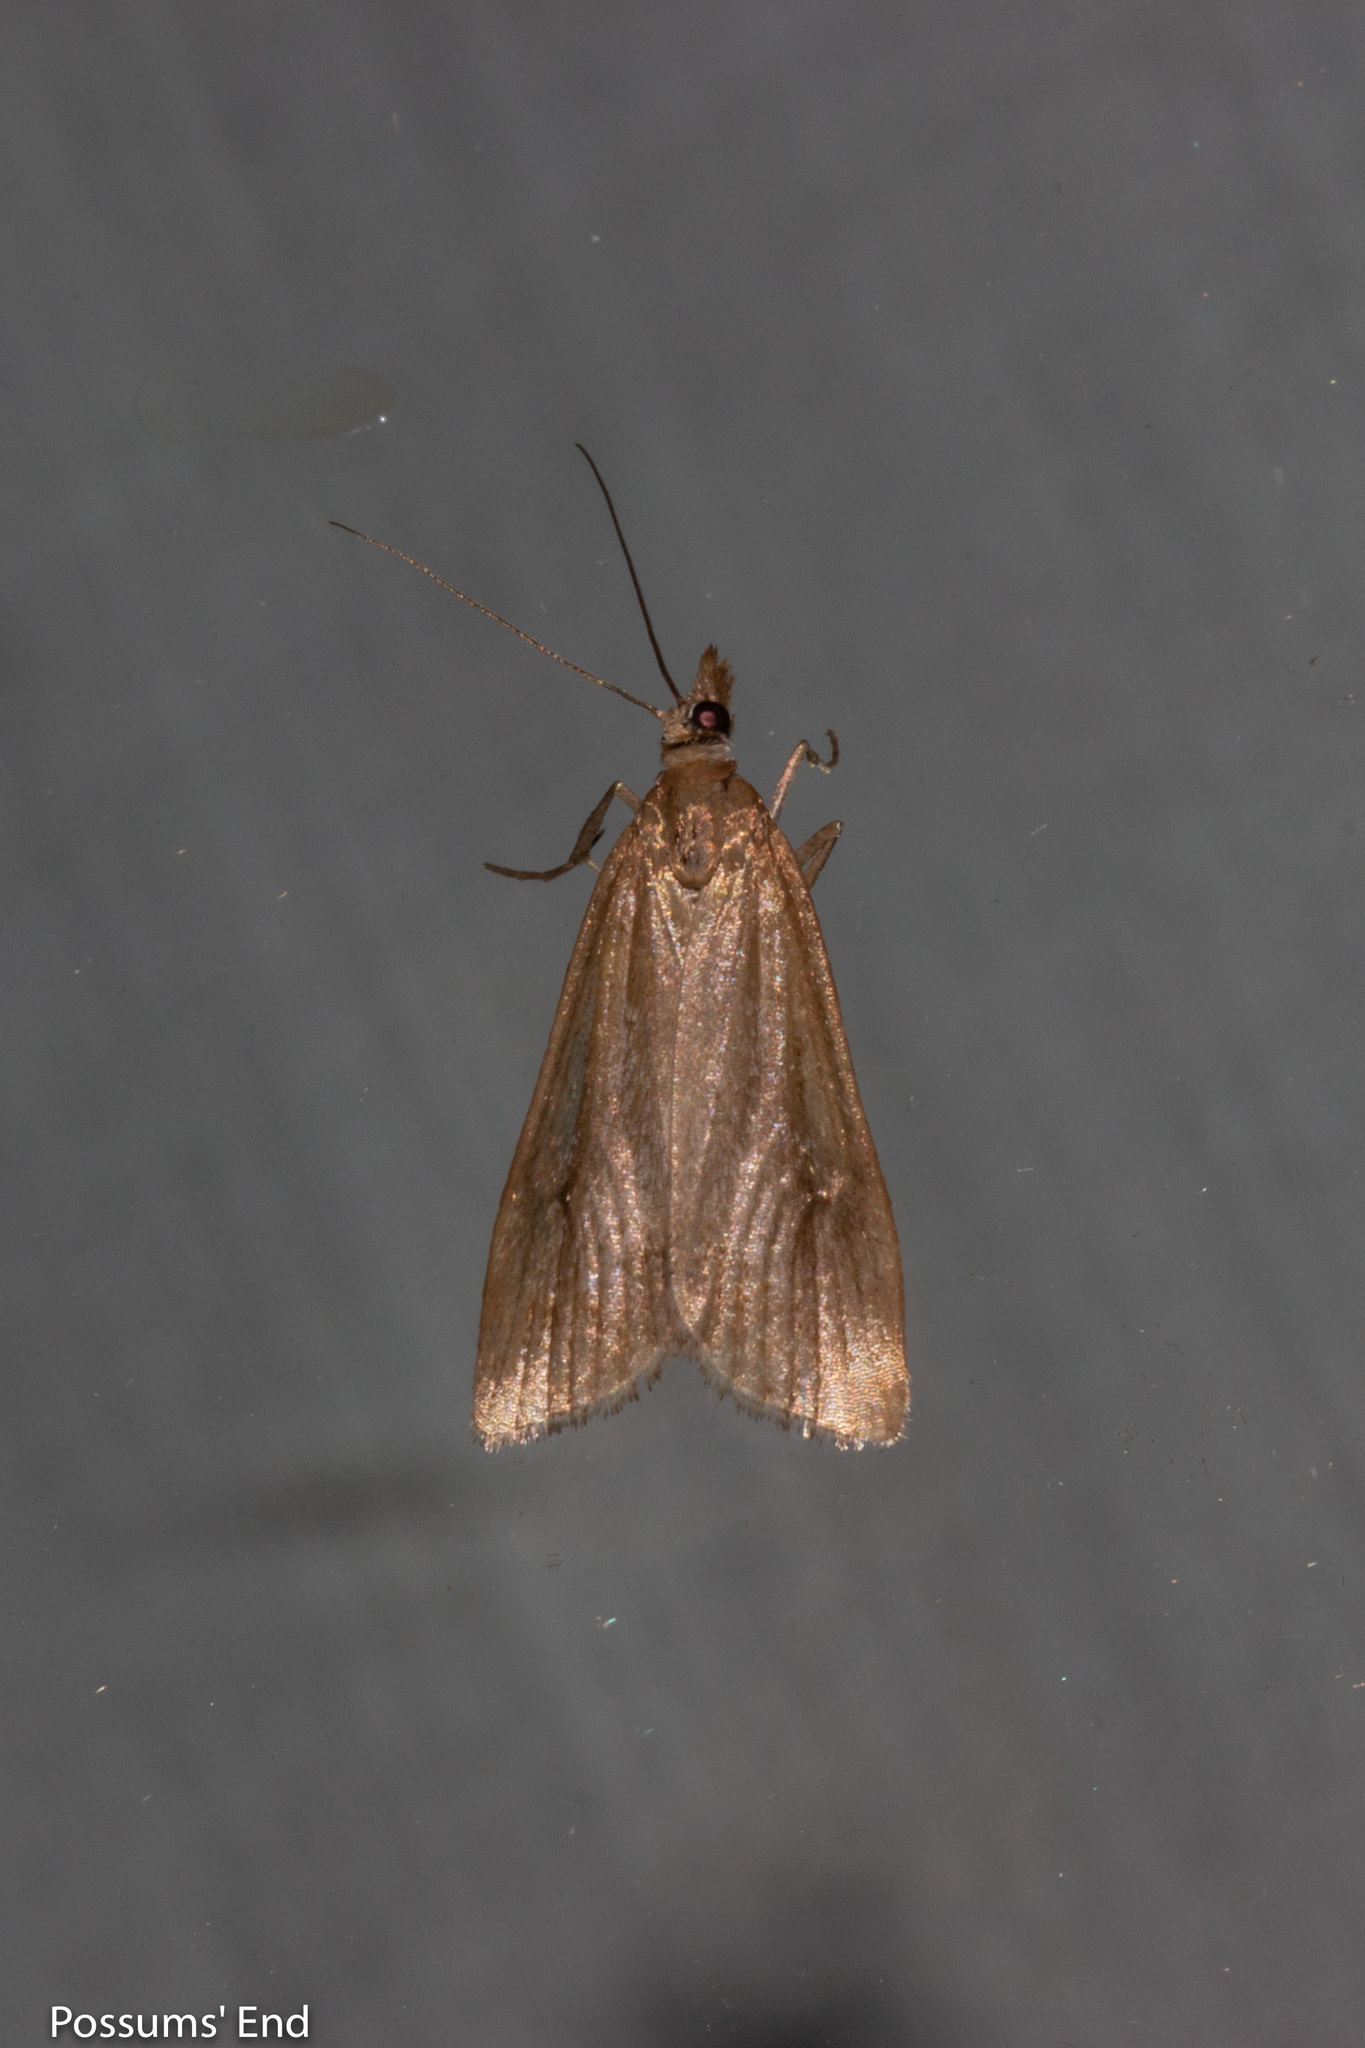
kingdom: Animalia
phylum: Arthropoda
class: Insecta
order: Lepidoptera
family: Crambidae
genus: Eudonia
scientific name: Eudonia sabulosella
